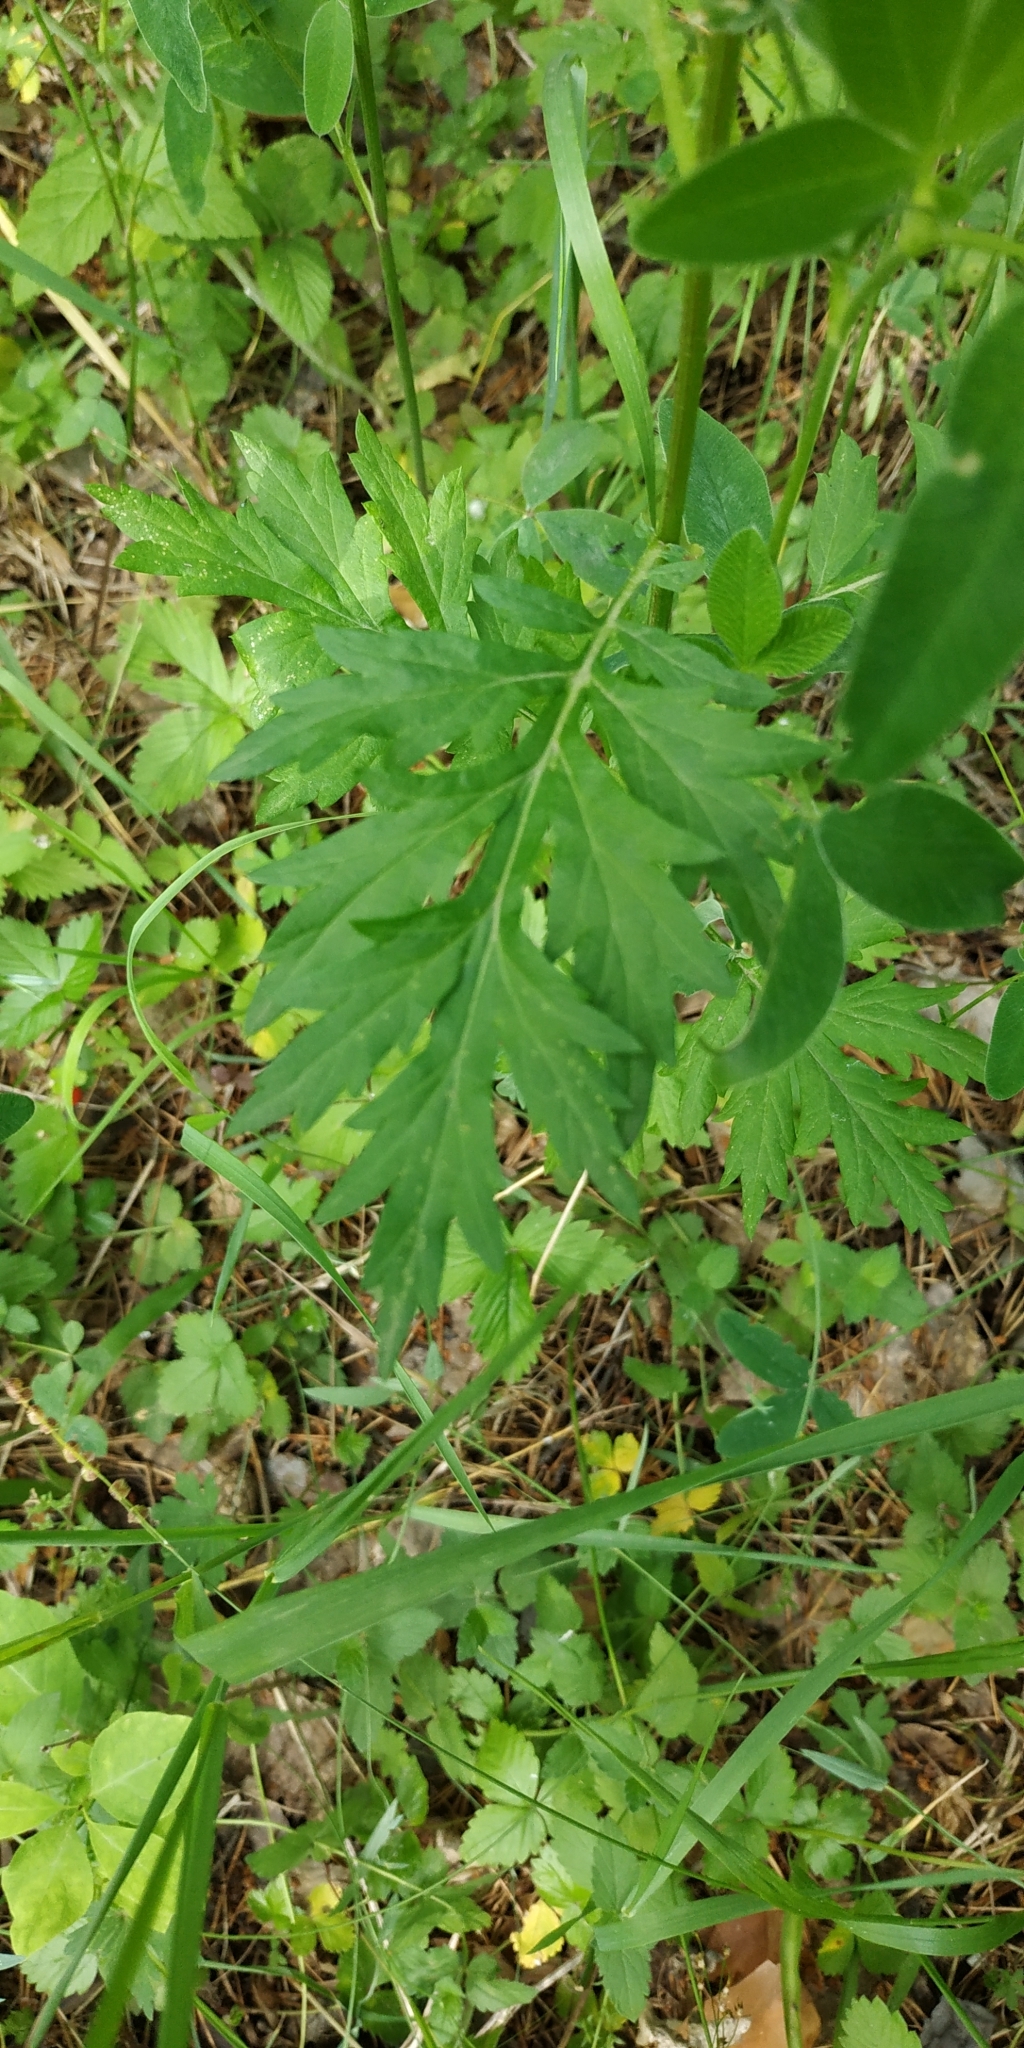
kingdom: Plantae
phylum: Tracheophyta
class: Magnoliopsida
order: Asterales
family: Asteraceae
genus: Artemisia
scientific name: Artemisia vulgaris
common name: Mugwort
